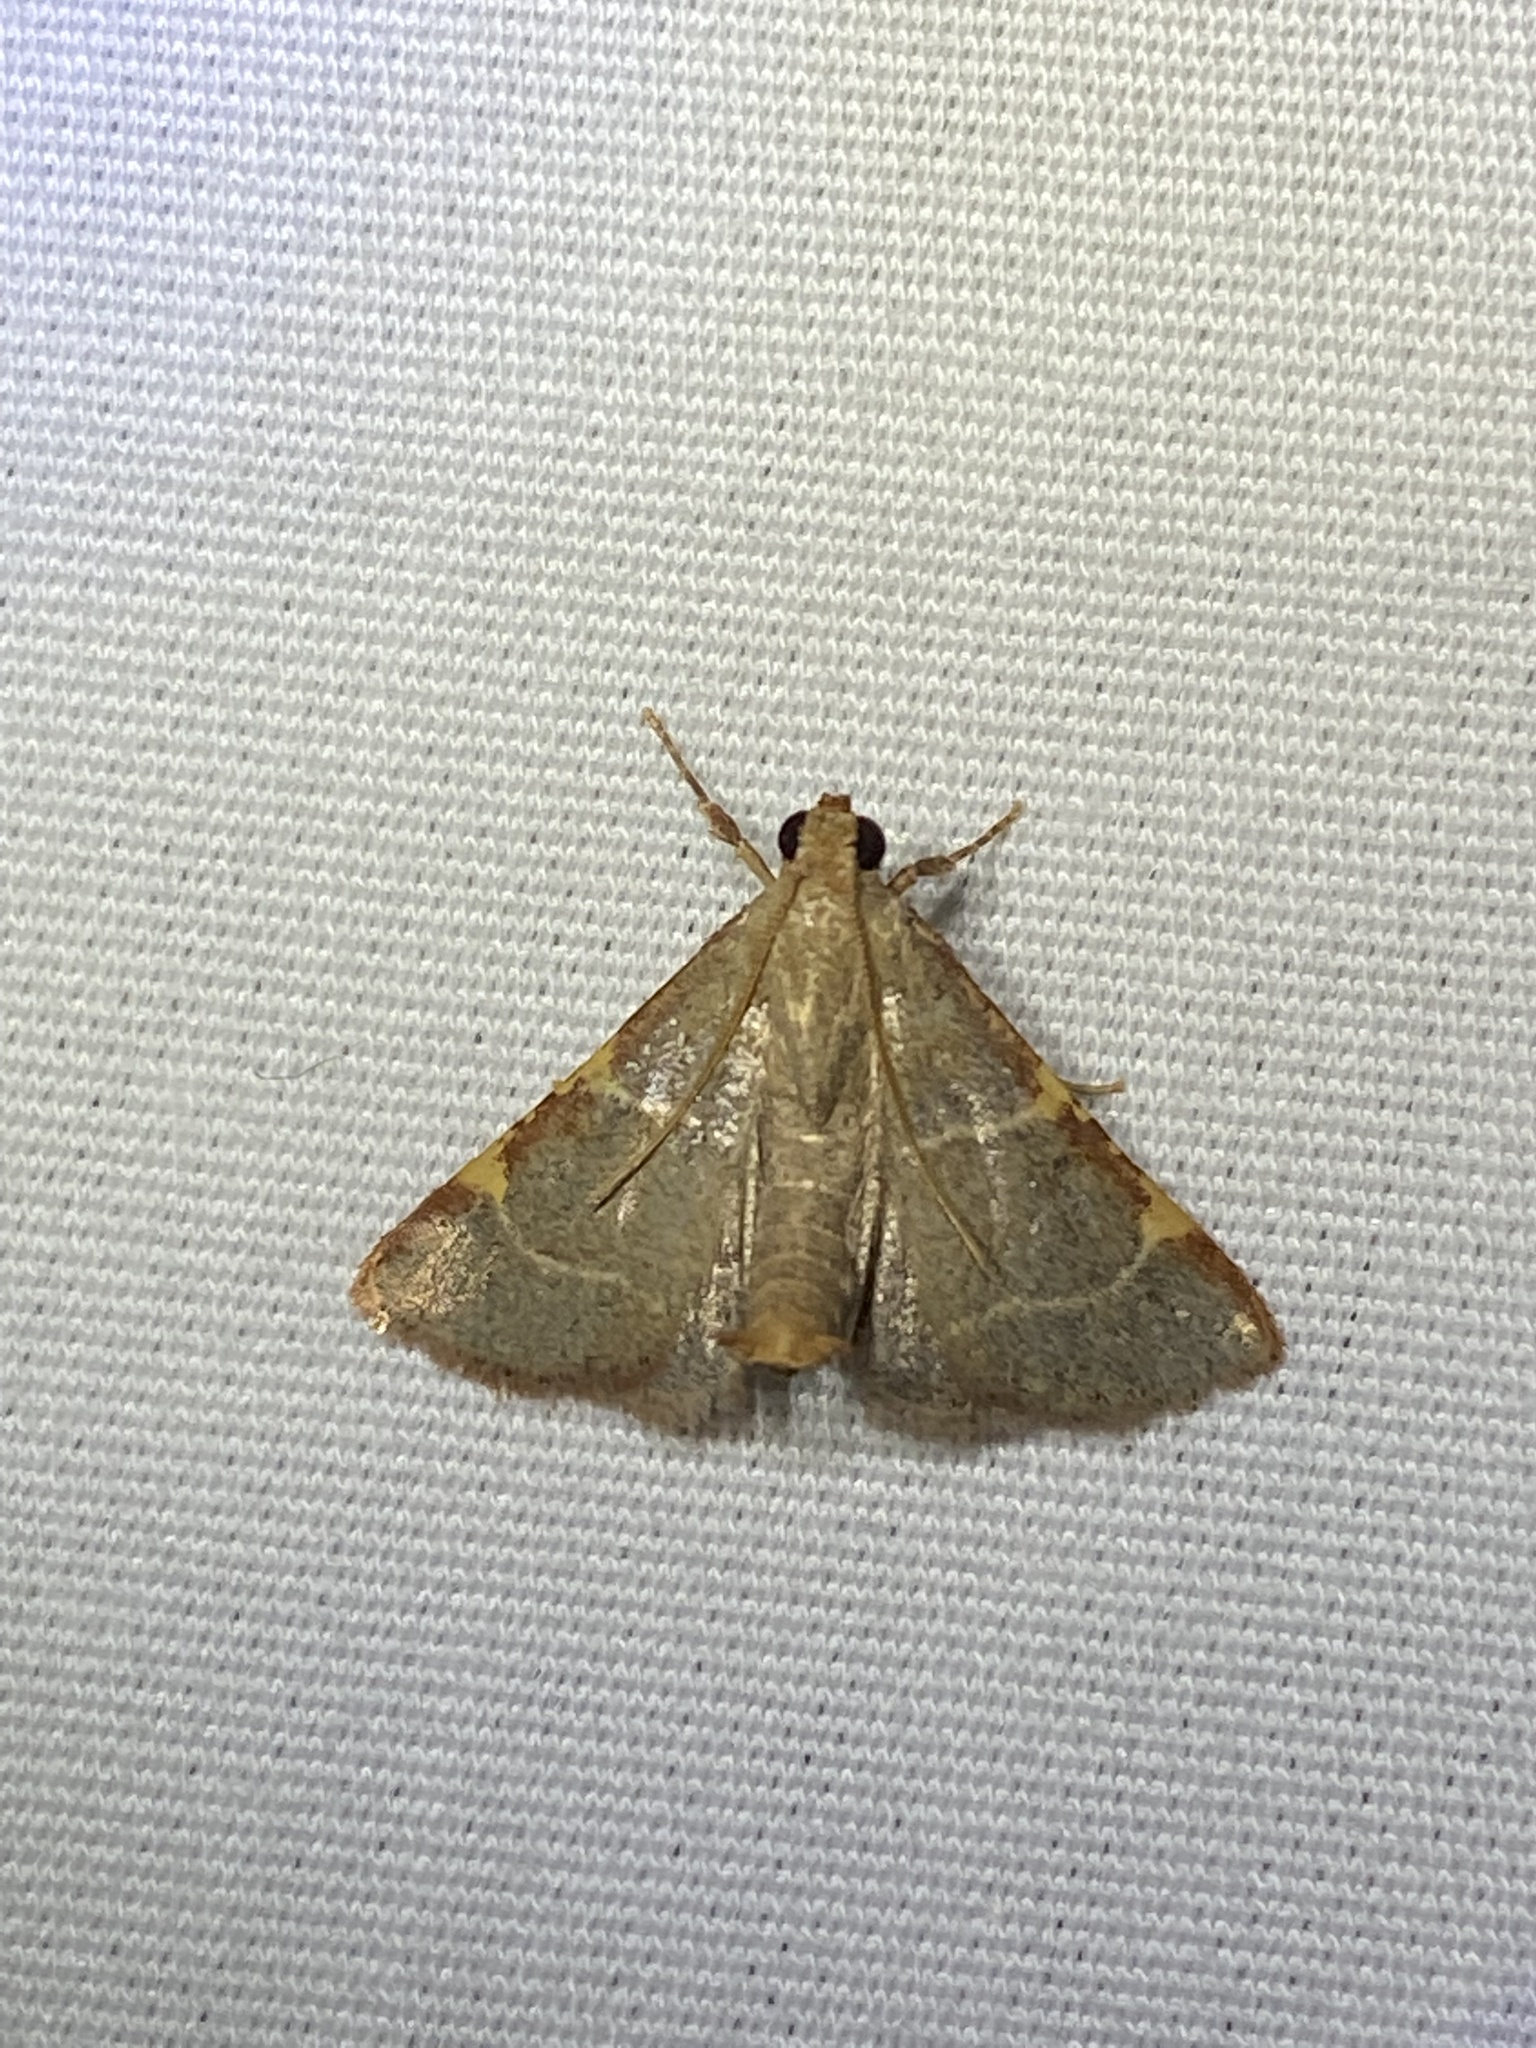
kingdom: Animalia
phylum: Arthropoda
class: Insecta
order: Lepidoptera
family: Pyralidae
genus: Hypsopygia
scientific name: Hypsopygia binodulalis
